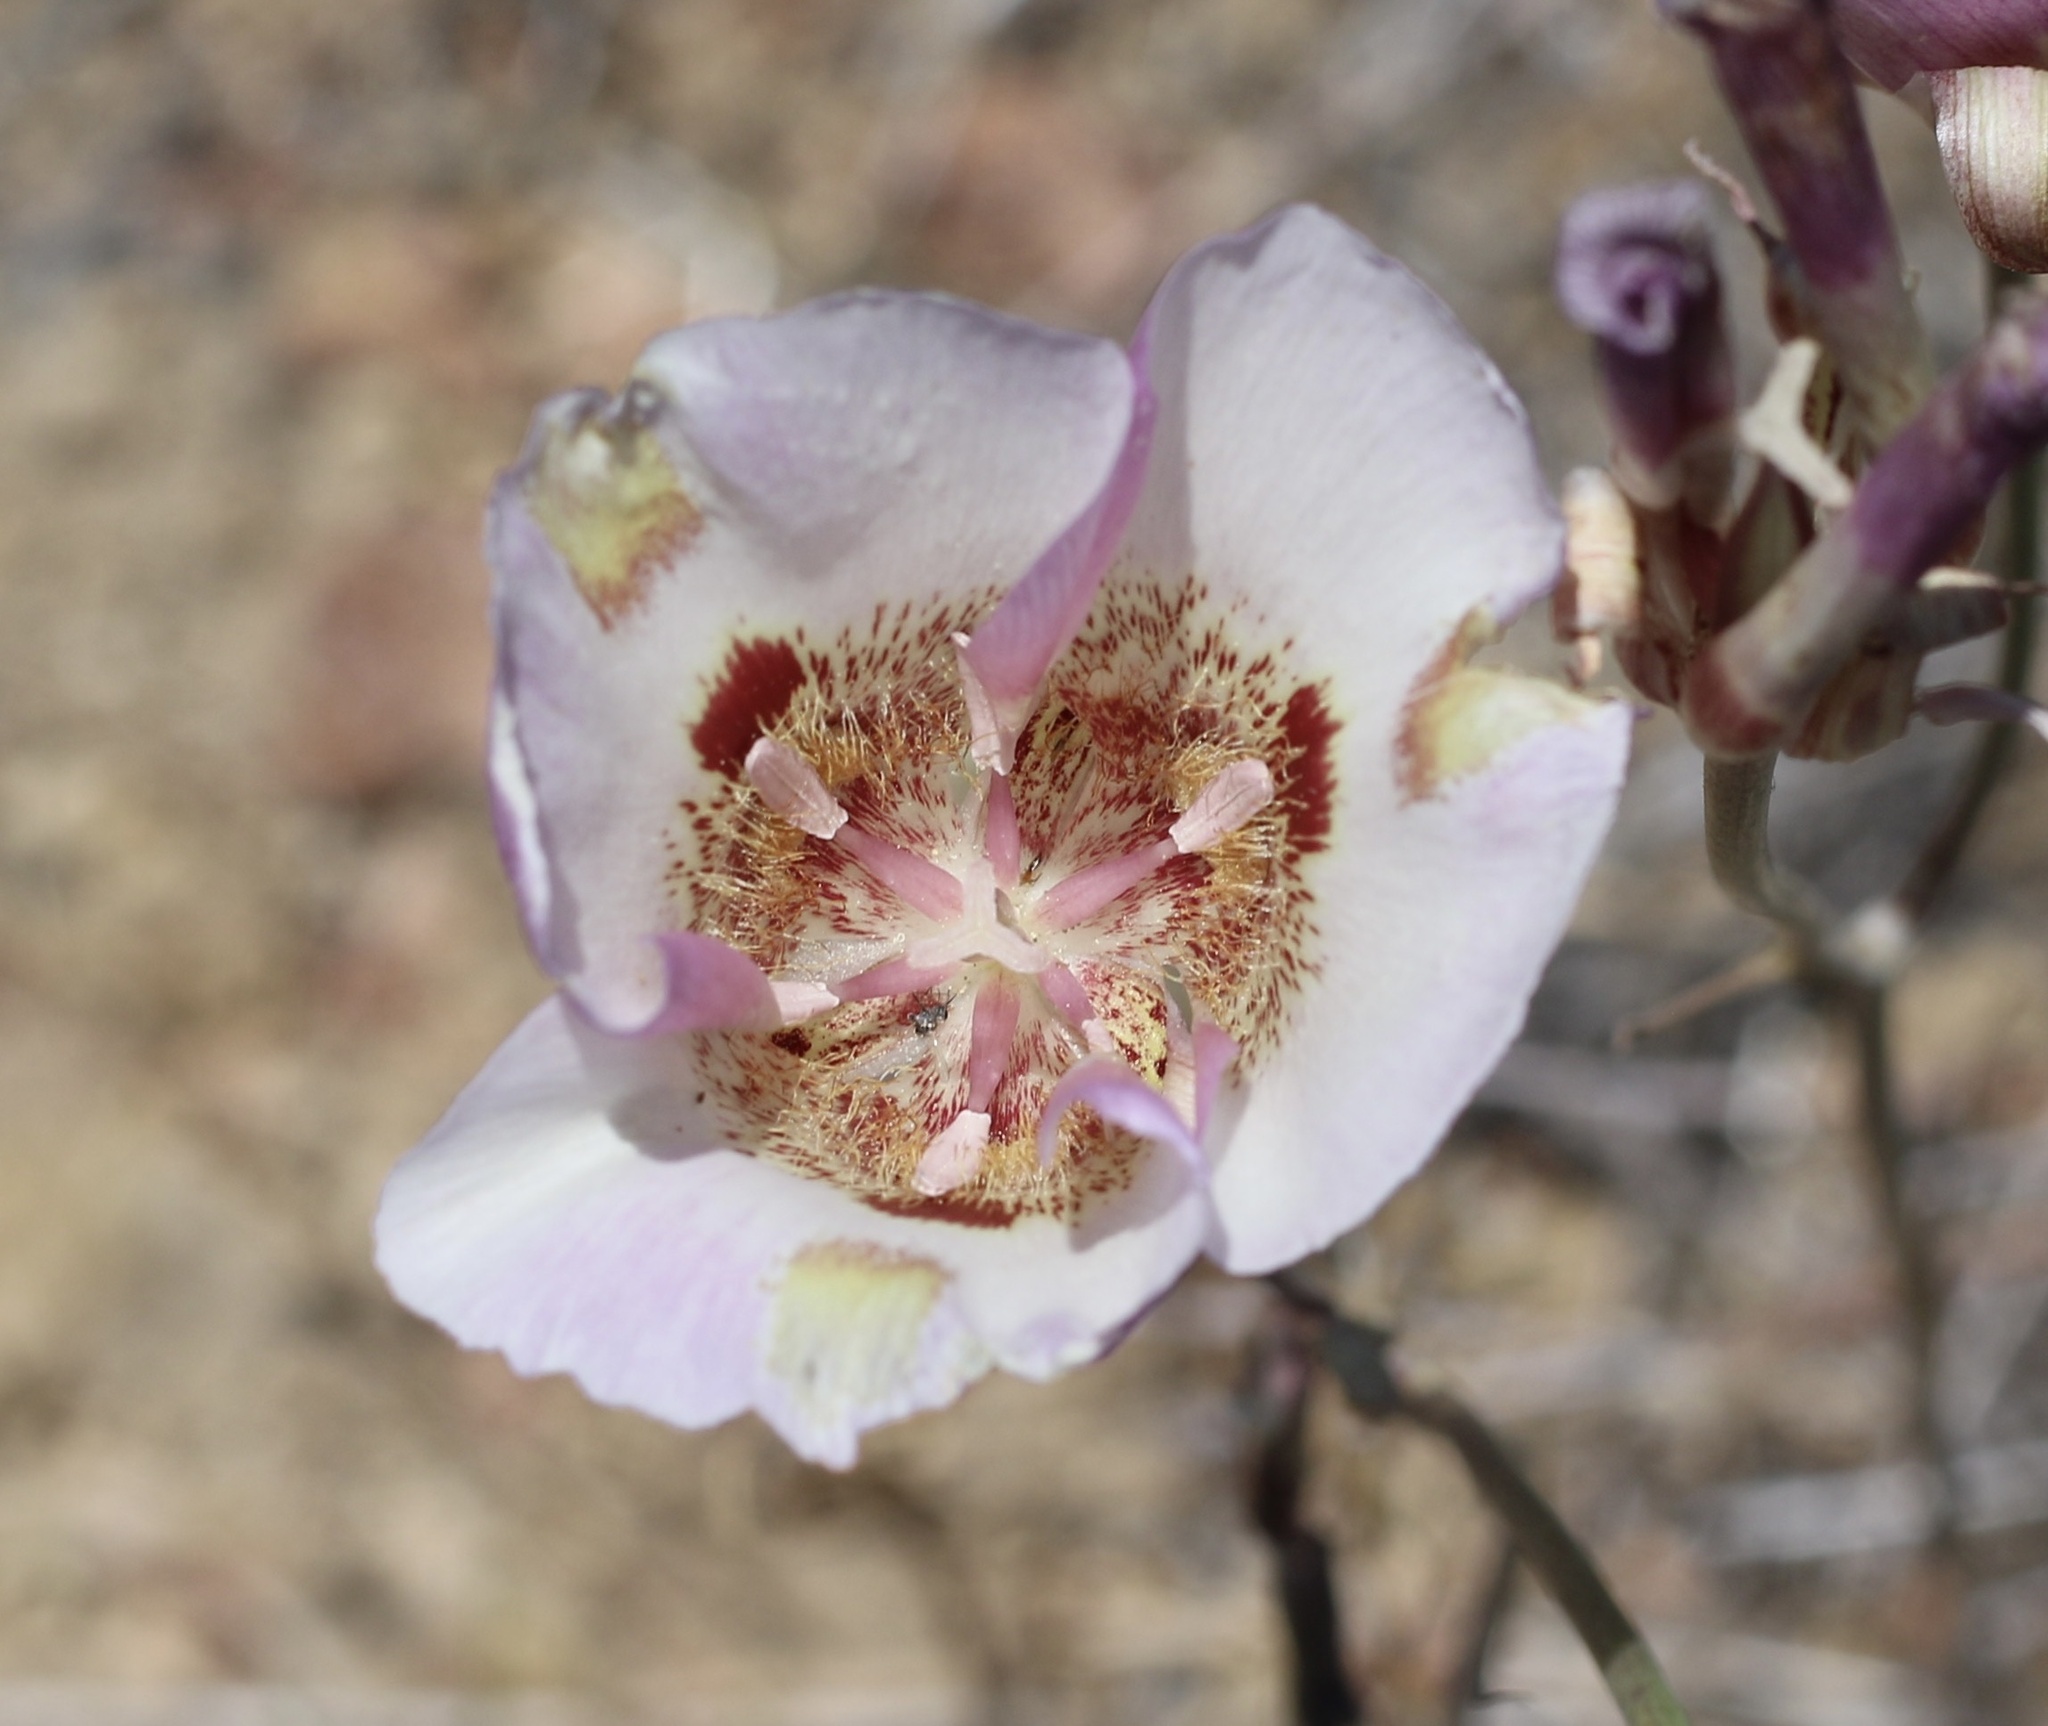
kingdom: Plantae
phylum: Tracheophyta
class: Liliopsida
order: Liliales
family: Liliaceae
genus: Calochortus
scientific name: Calochortus venustus
